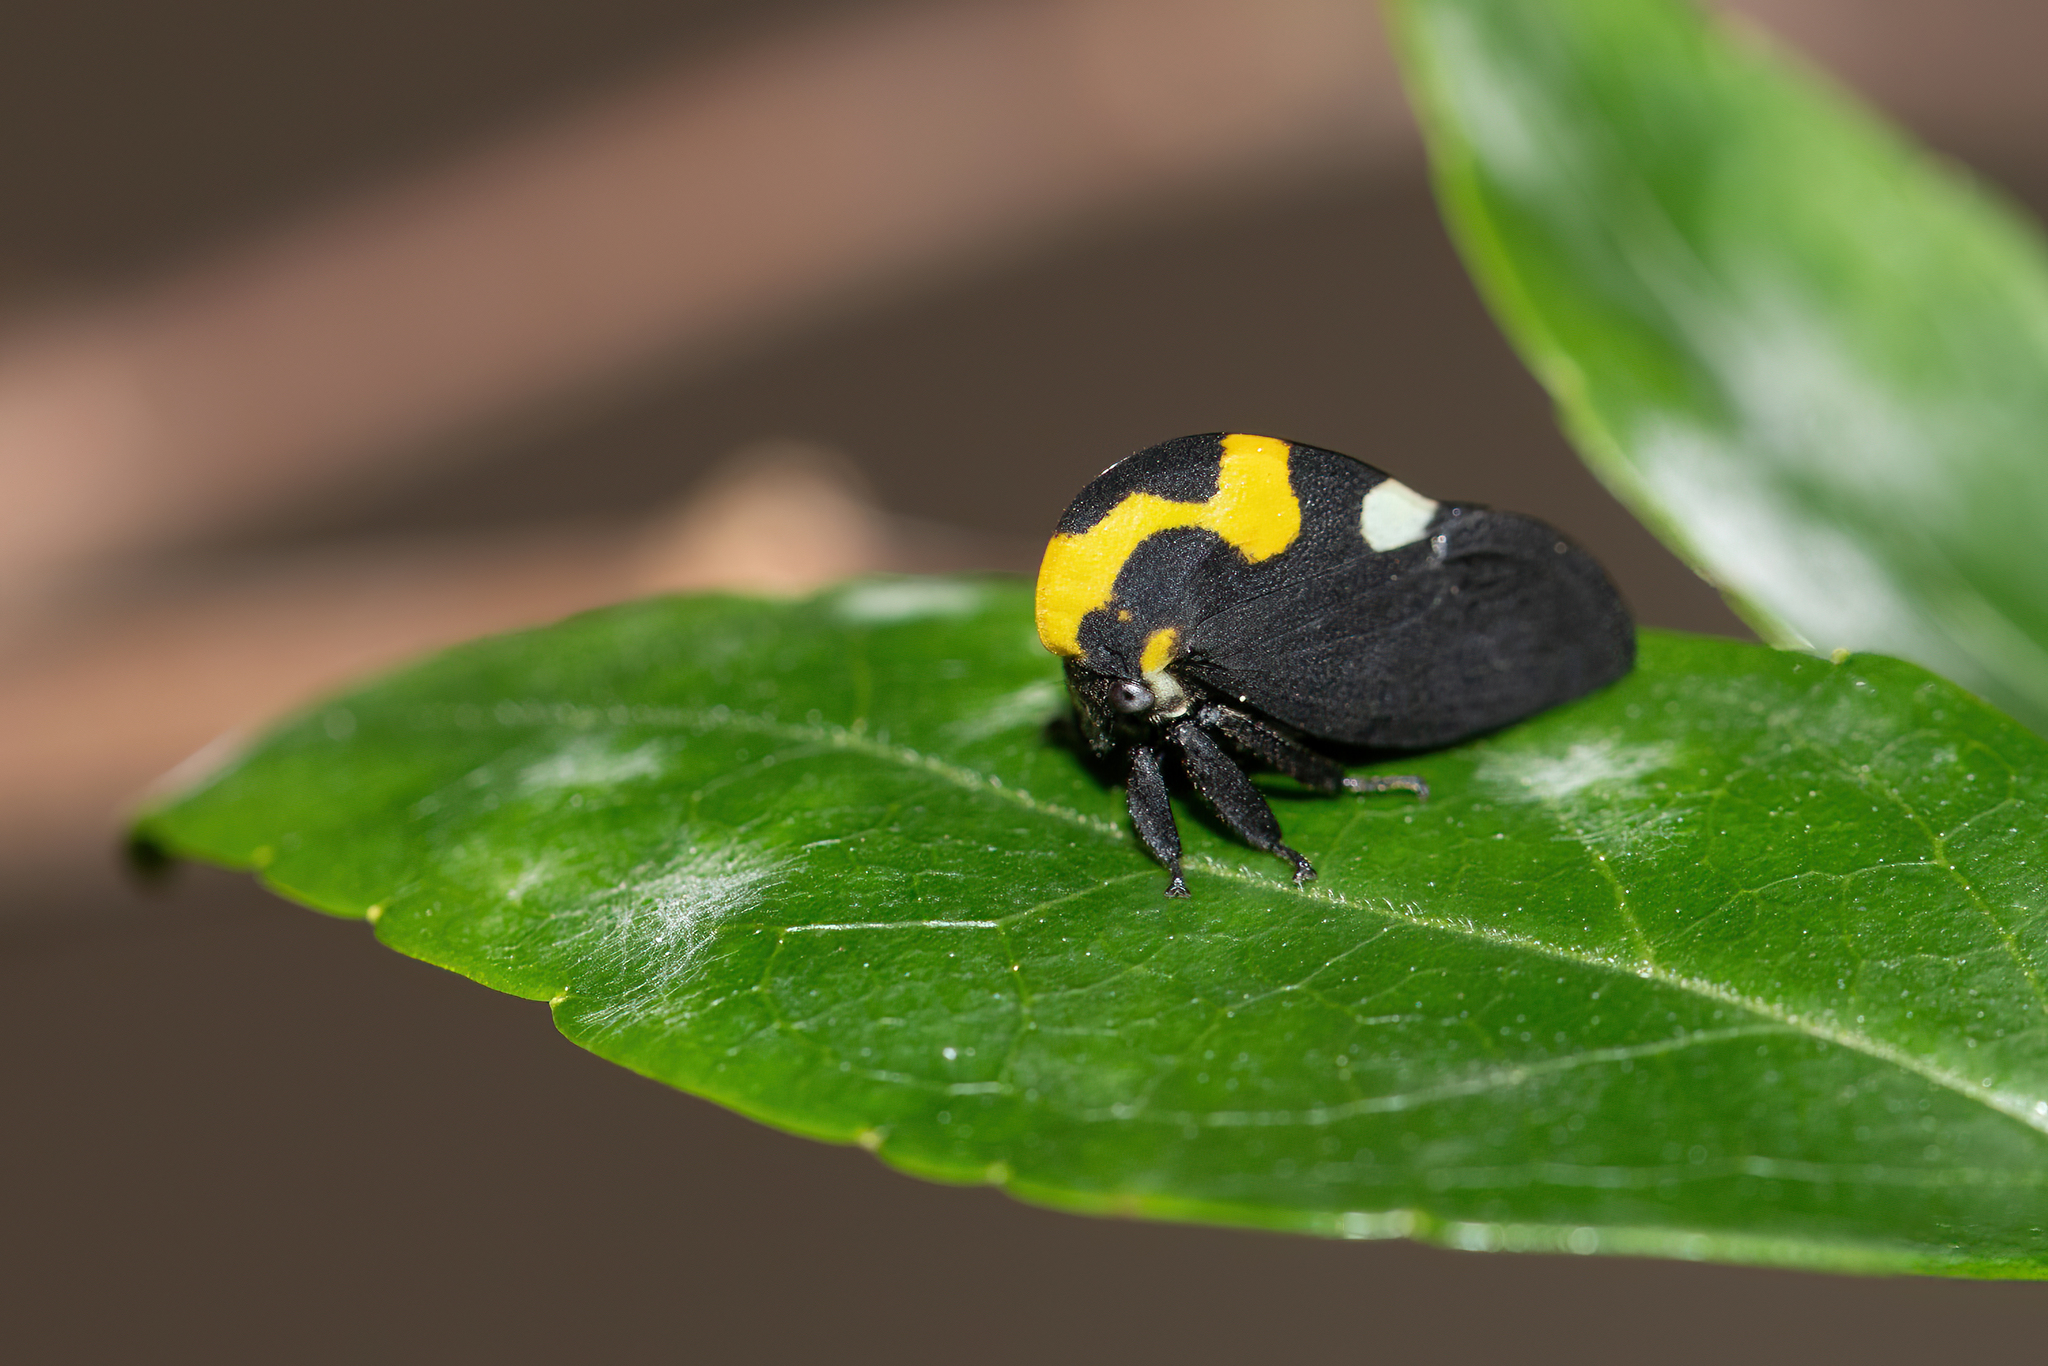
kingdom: Animalia
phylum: Arthropoda
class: Insecta
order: Hemiptera
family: Membracidae
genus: Membracis
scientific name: Membracis mexicana
